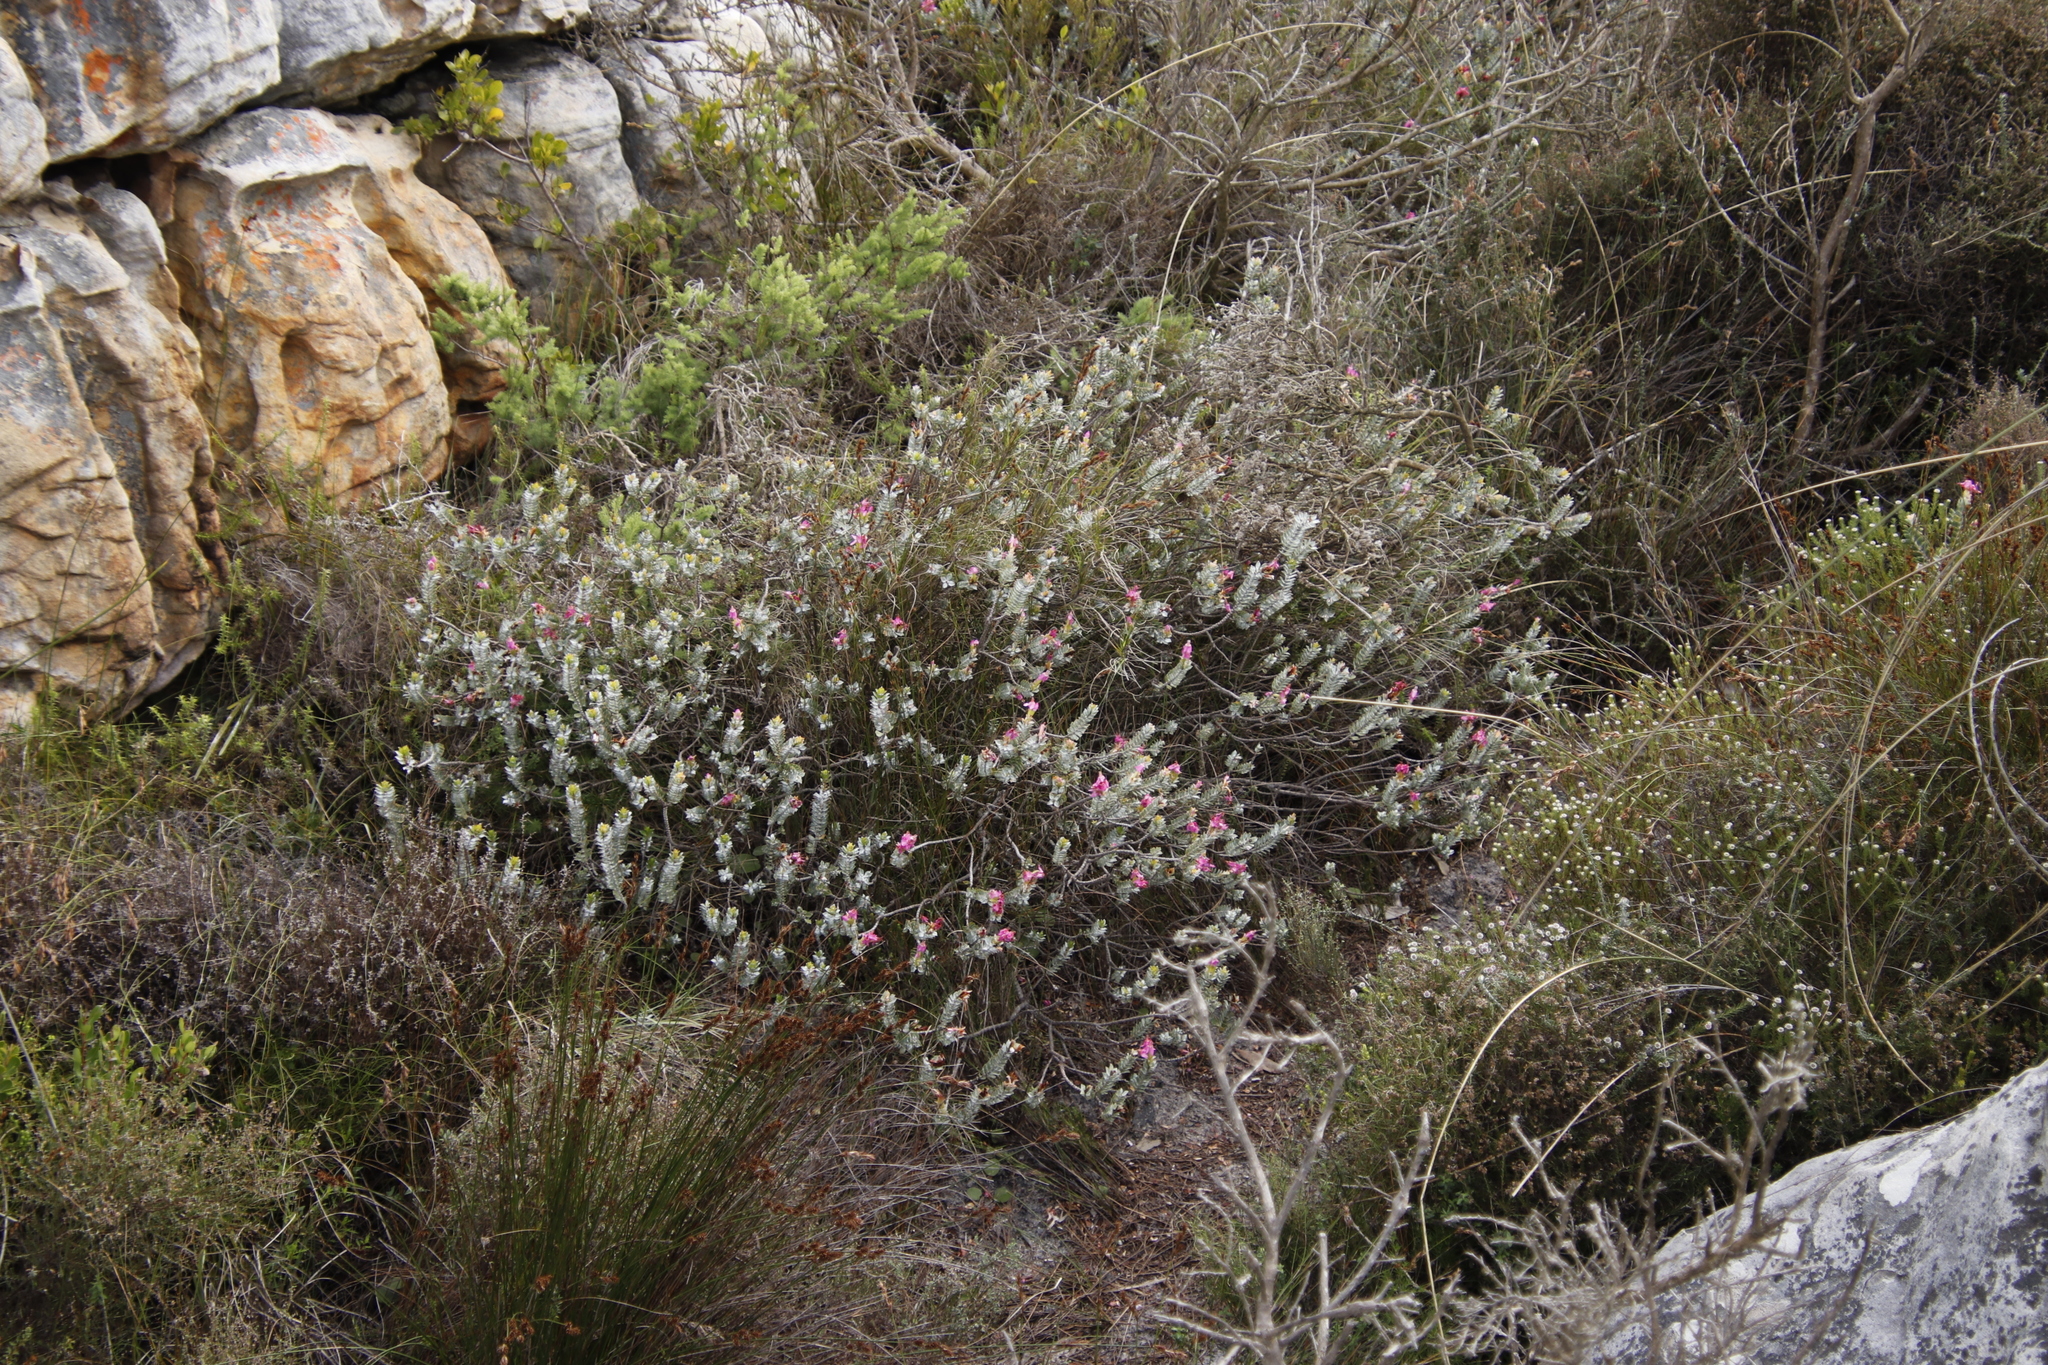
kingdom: Plantae
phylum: Tracheophyta
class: Magnoliopsida
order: Myrtales
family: Penaeaceae
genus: Saltera
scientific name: Saltera sarcocolla
